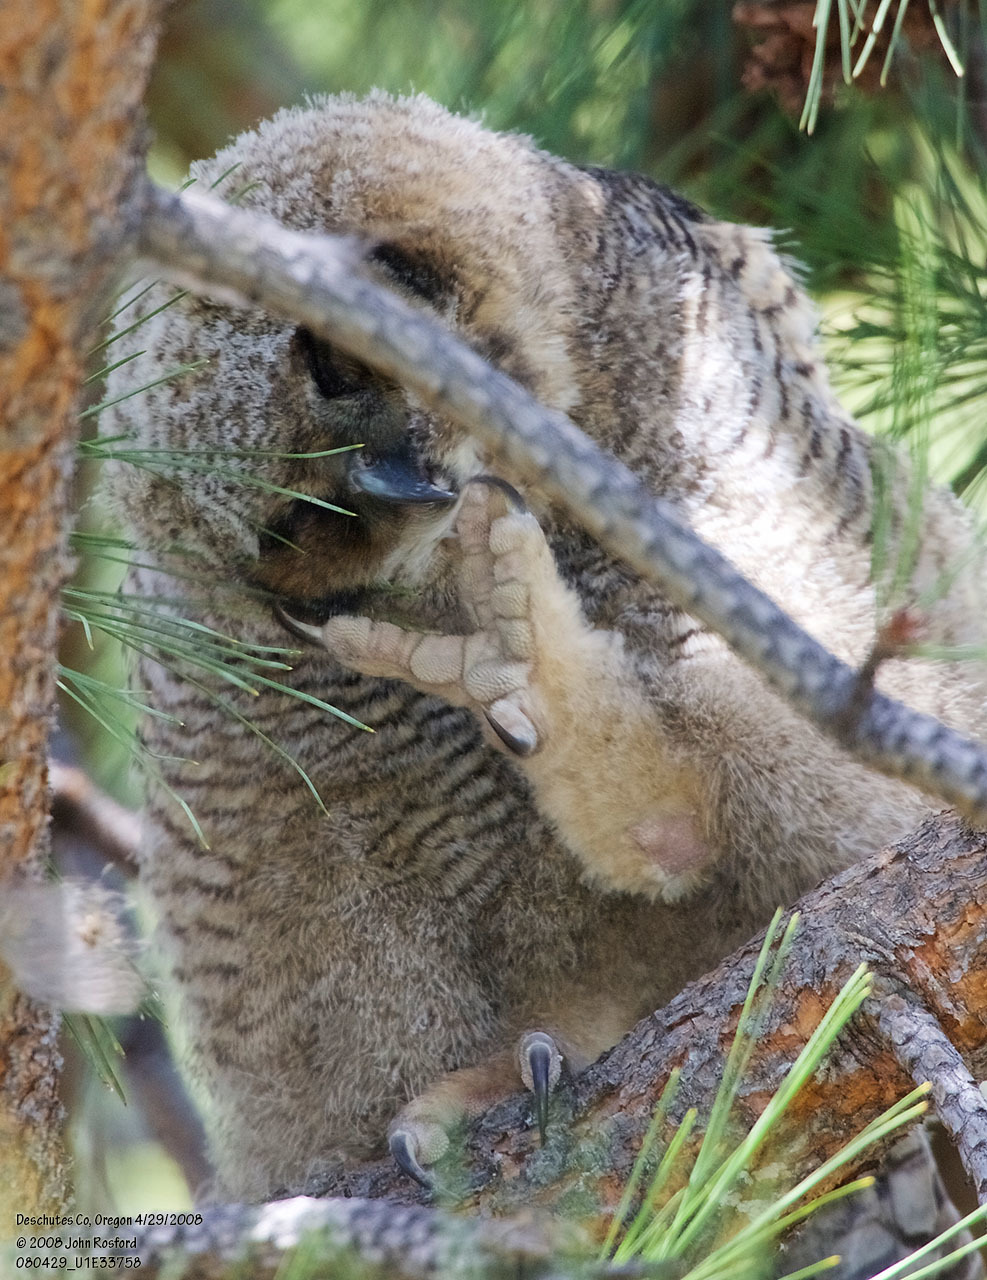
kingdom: Animalia
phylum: Chordata
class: Aves
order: Strigiformes
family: Strigidae
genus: Bubo
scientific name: Bubo virginianus
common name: Great horned owl
